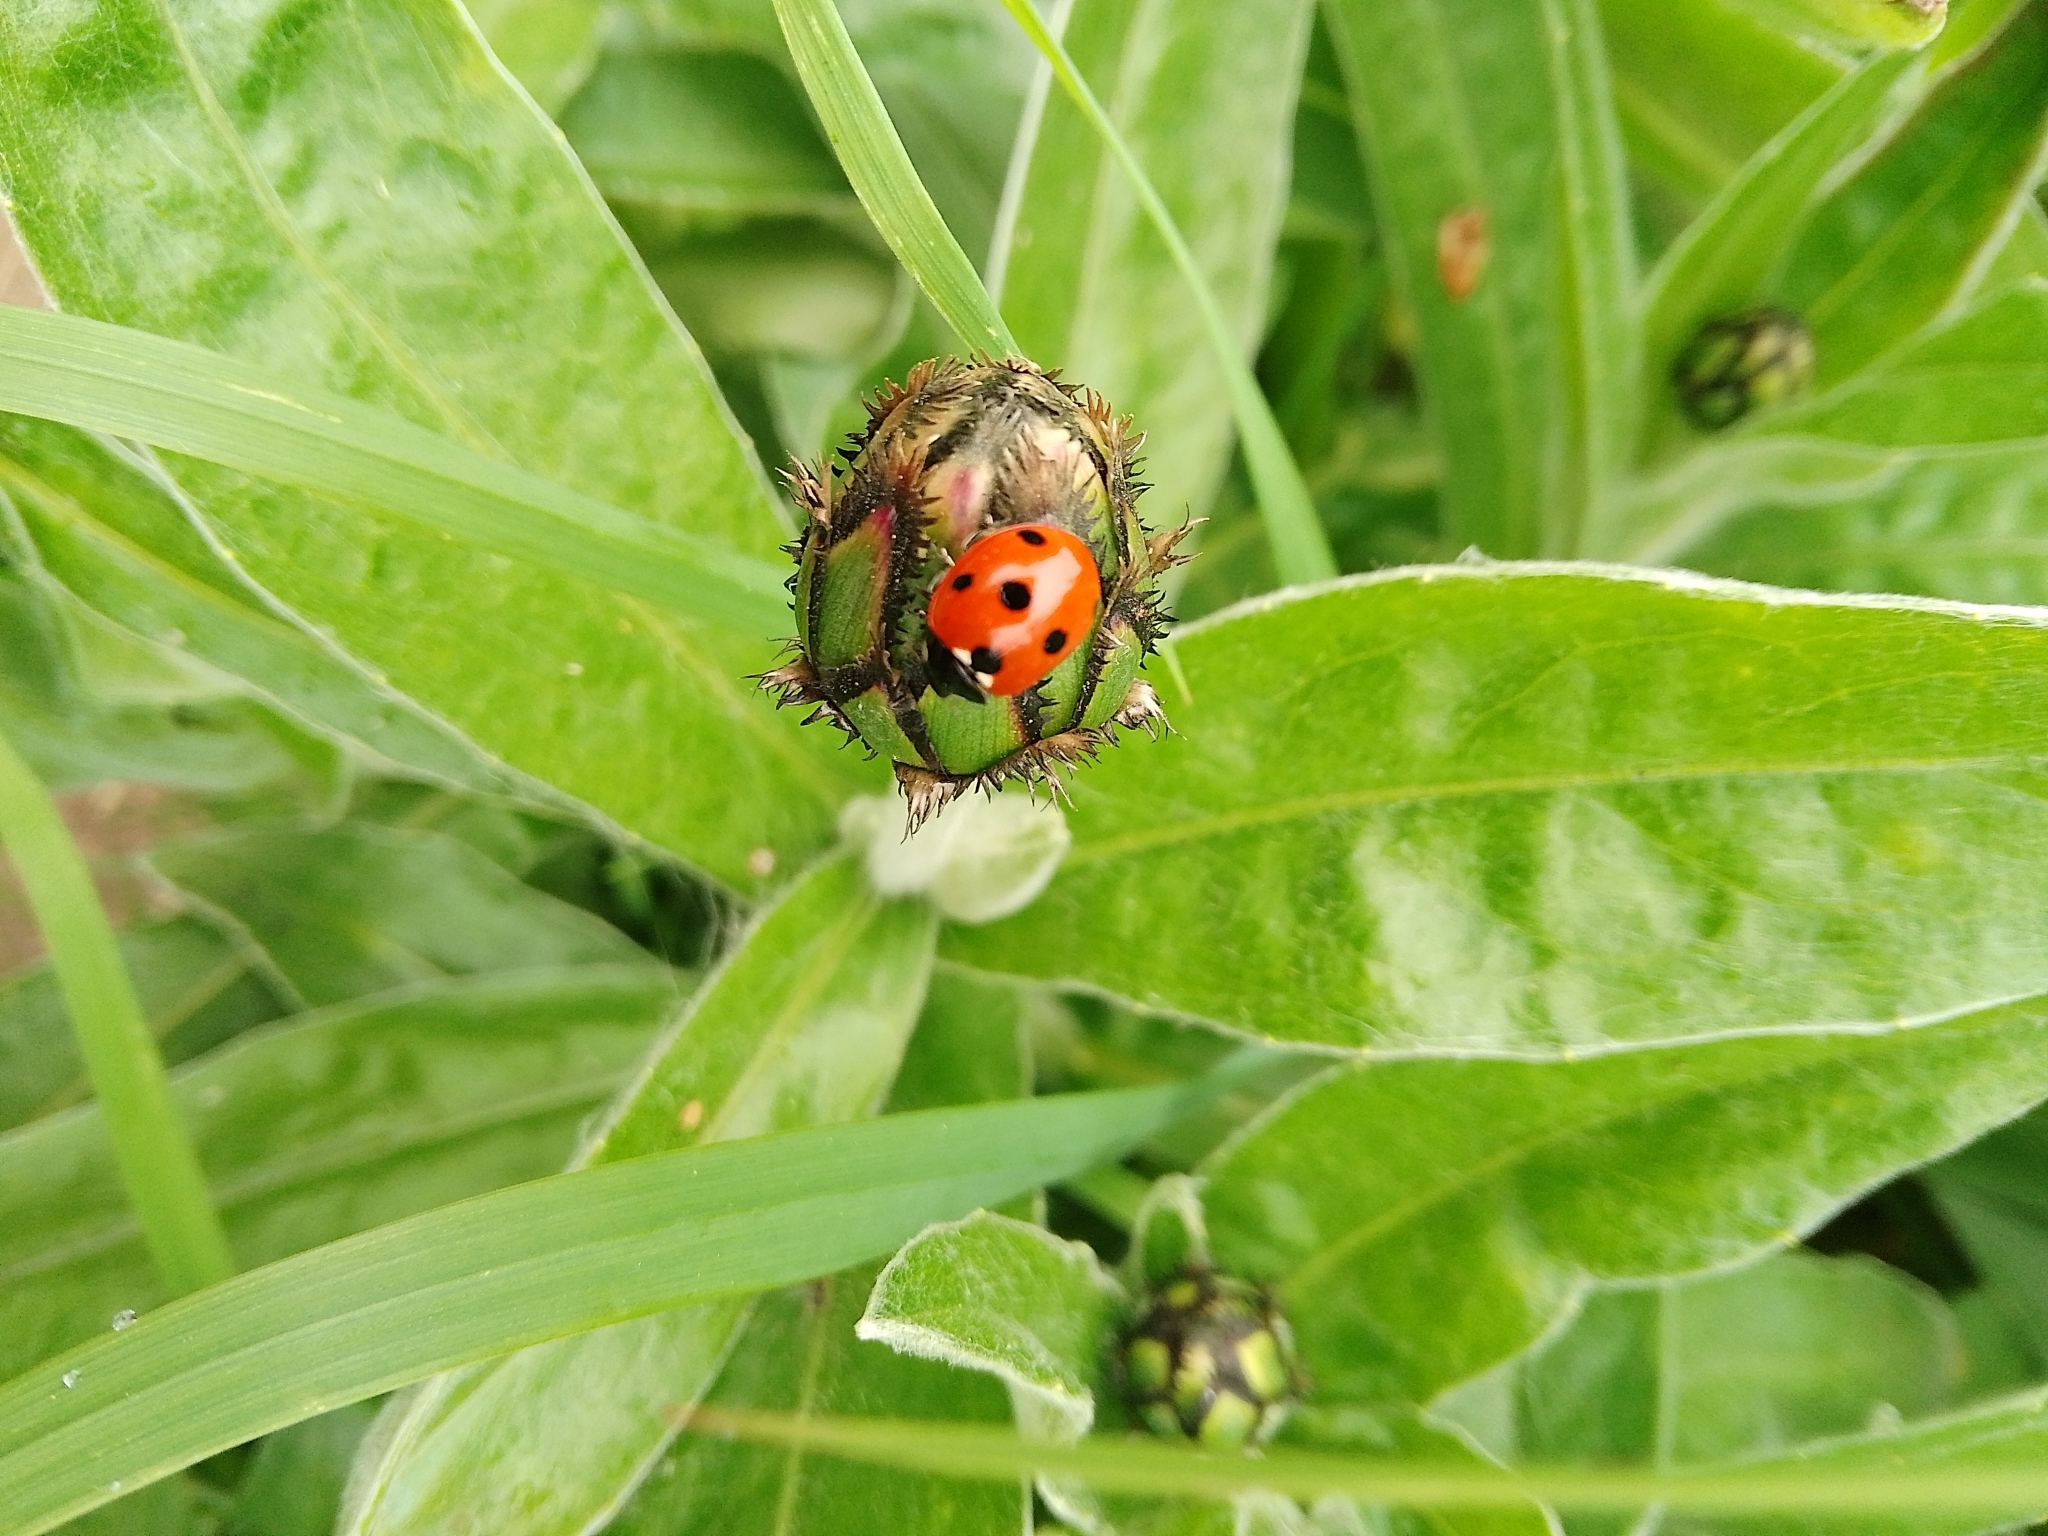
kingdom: Animalia
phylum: Arthropoda
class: Insecta
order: Coleoptera
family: Coccinellidae
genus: Coccinella
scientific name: Coccinella septempunctata
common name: Sevenspotted lady beetle
